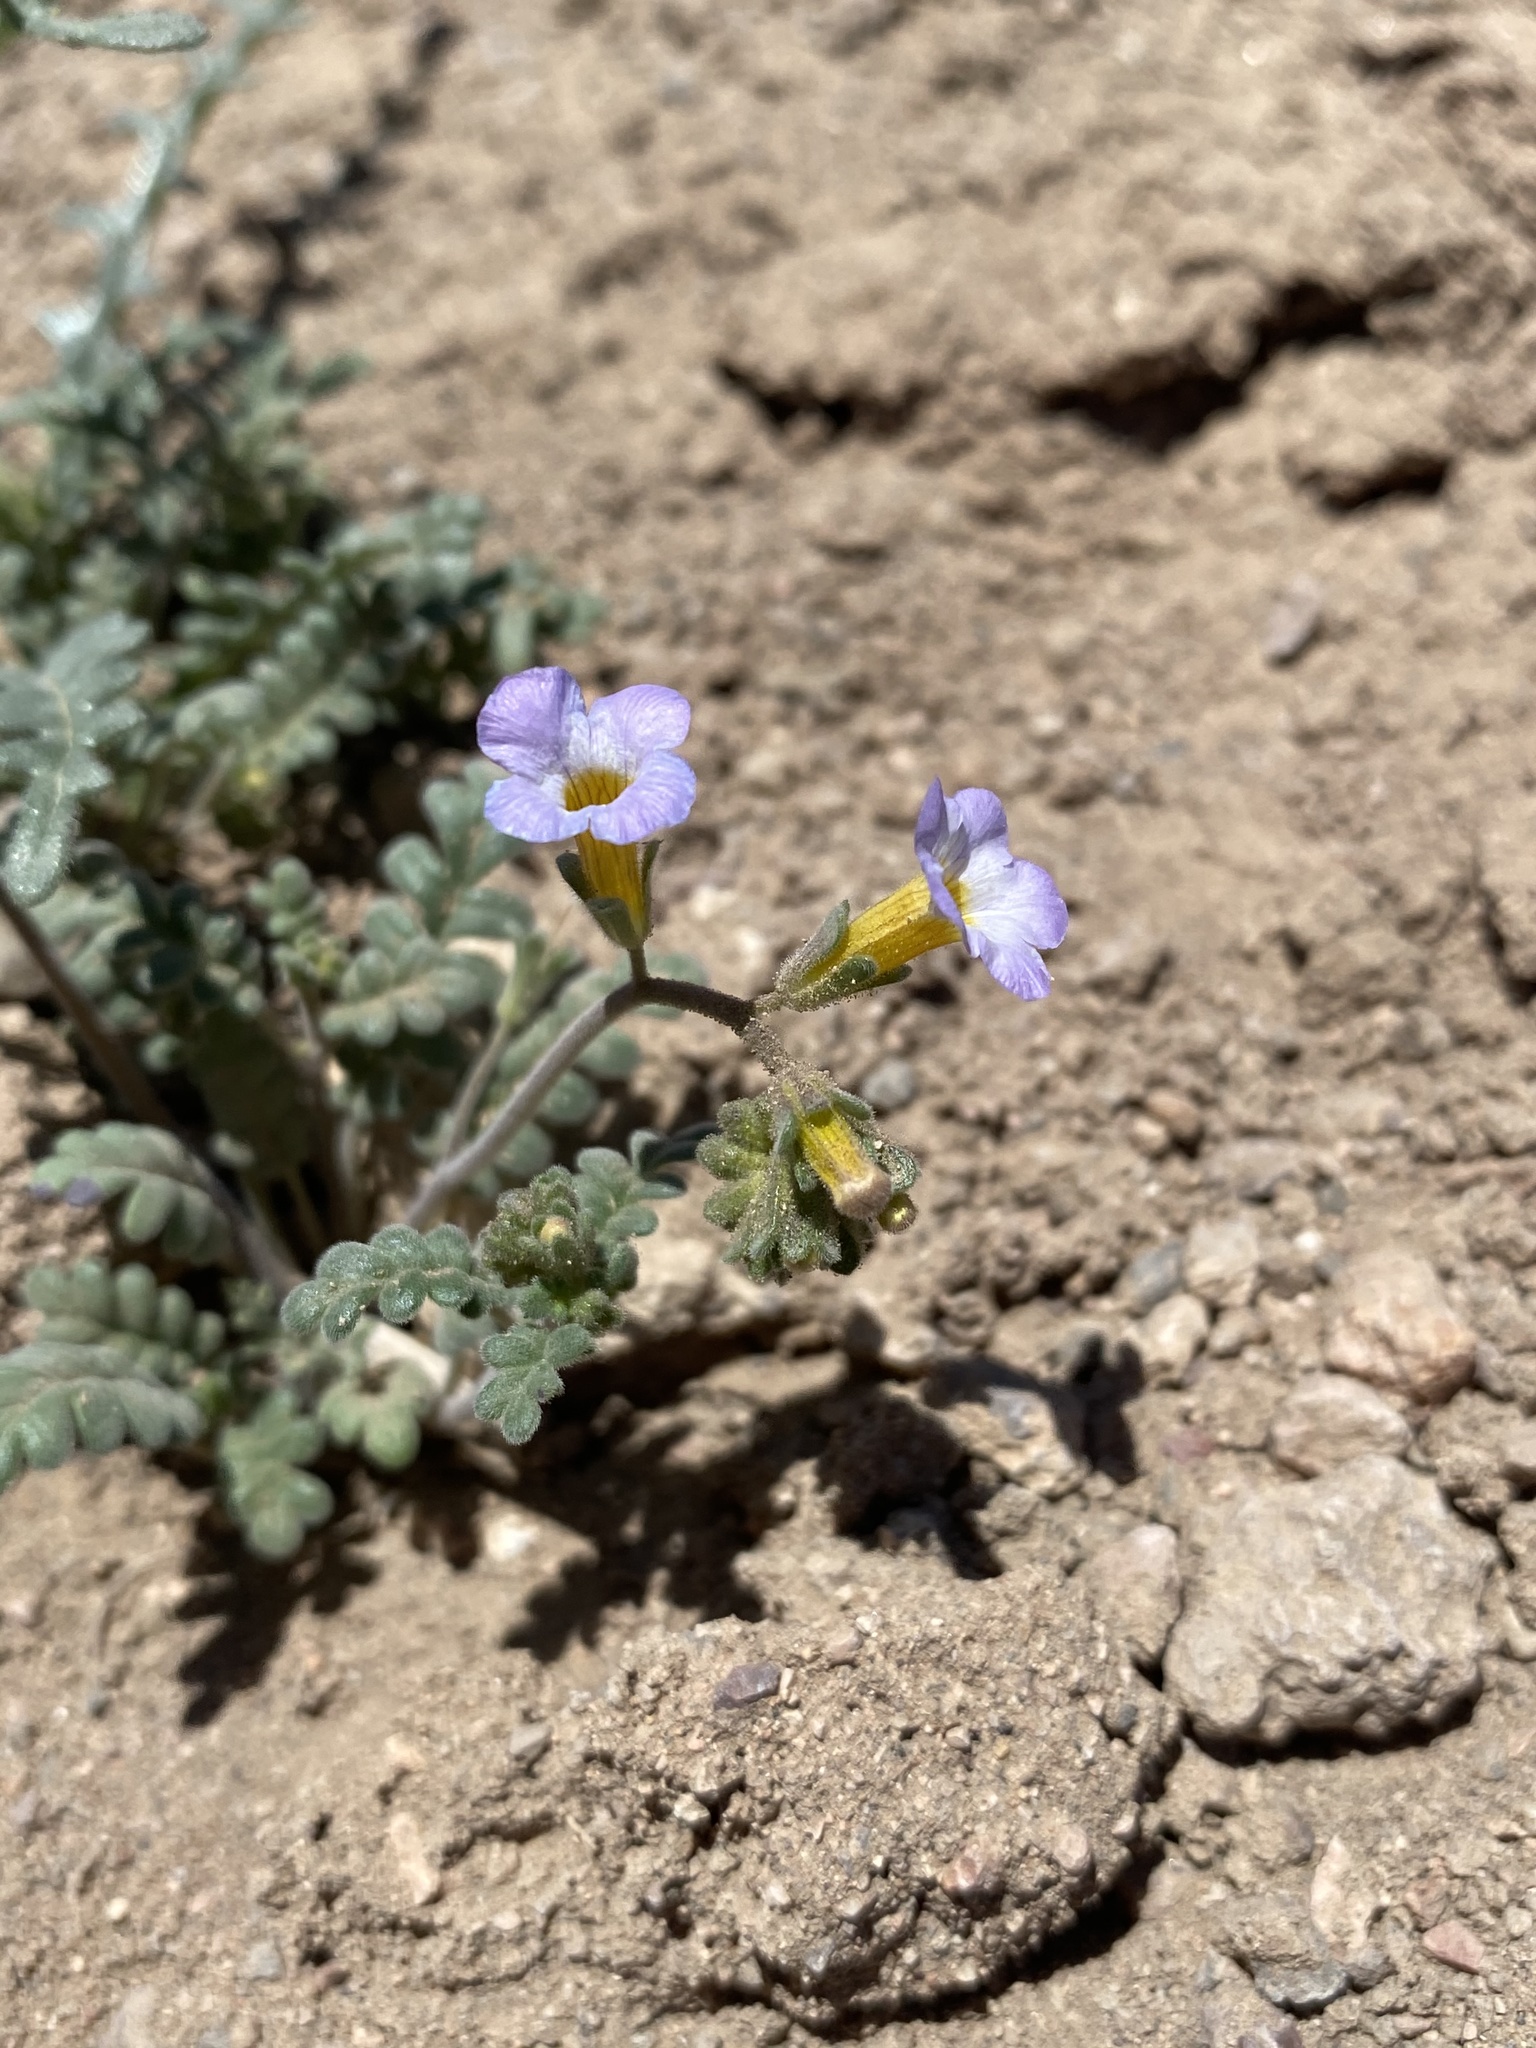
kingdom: Plantae
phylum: Tracheophyta
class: Magnoliopsida
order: Boraginales
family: Hydrophyllaceae
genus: Phacelia
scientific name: Phacelia fremontii
